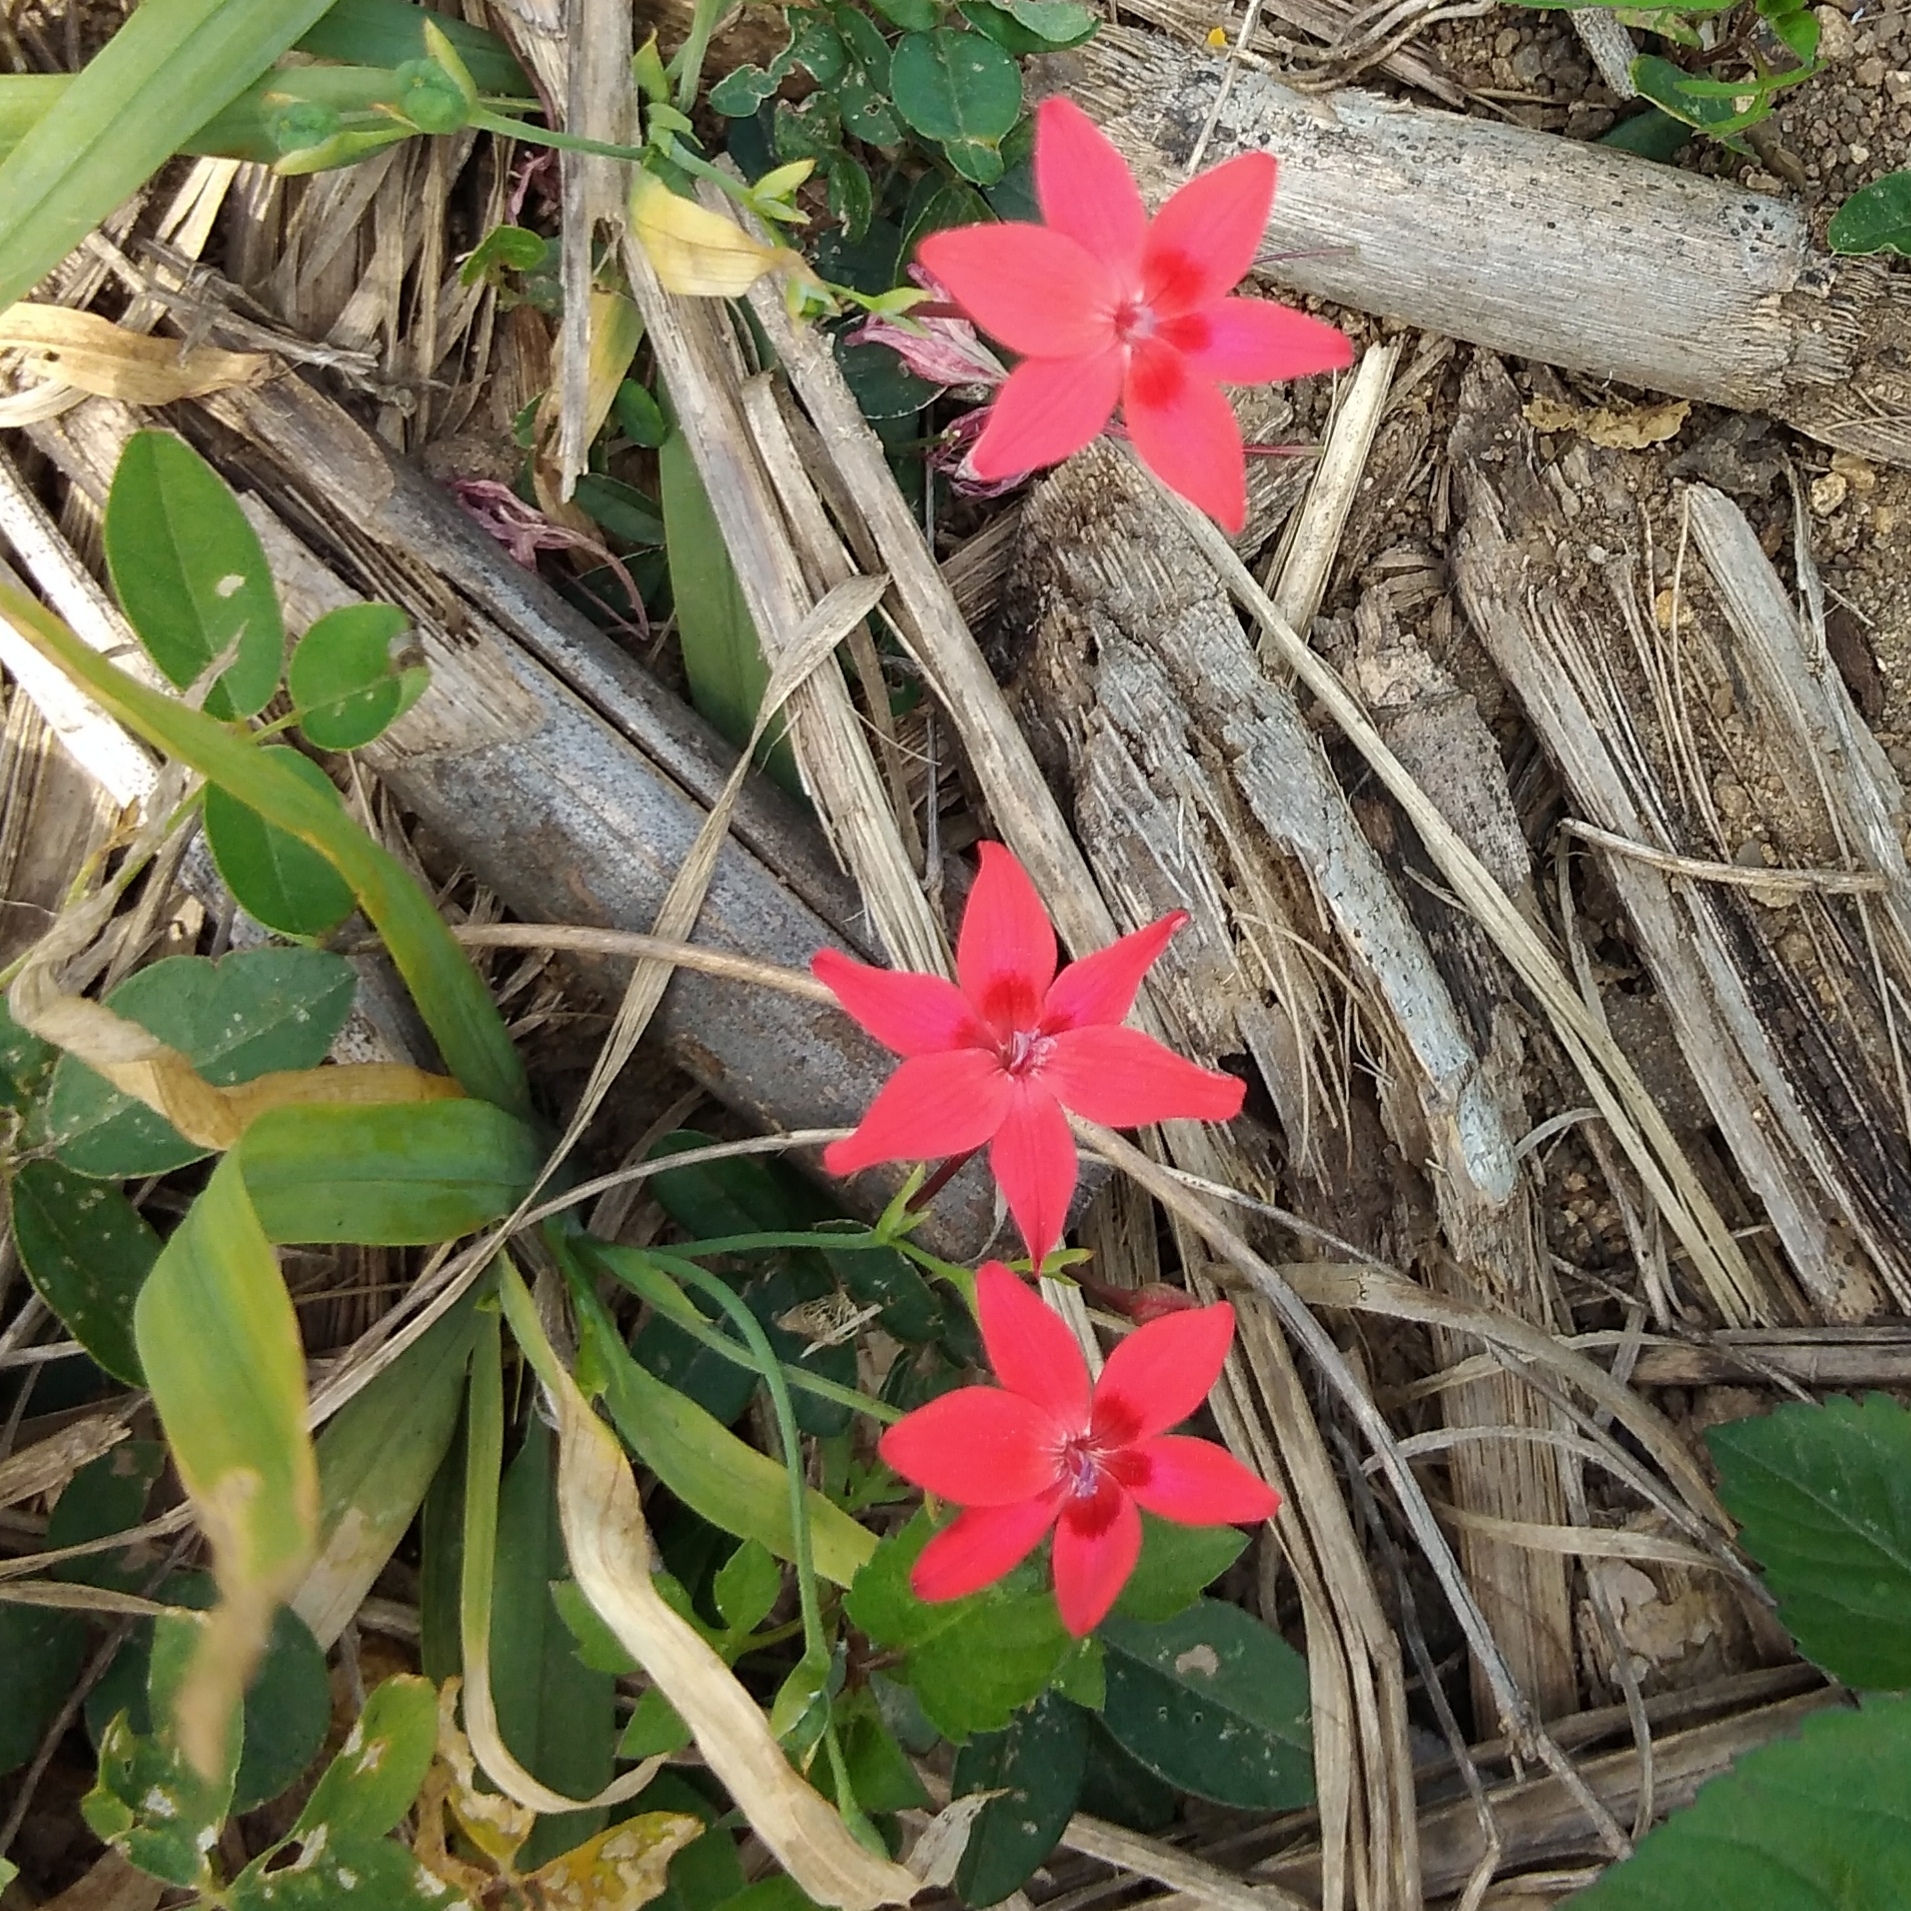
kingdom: Plantae
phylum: Tracheophyta
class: Liliopsida
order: Asparagales
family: Iridaceae
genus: Freesia
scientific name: Freesia laxa
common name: False freesia
